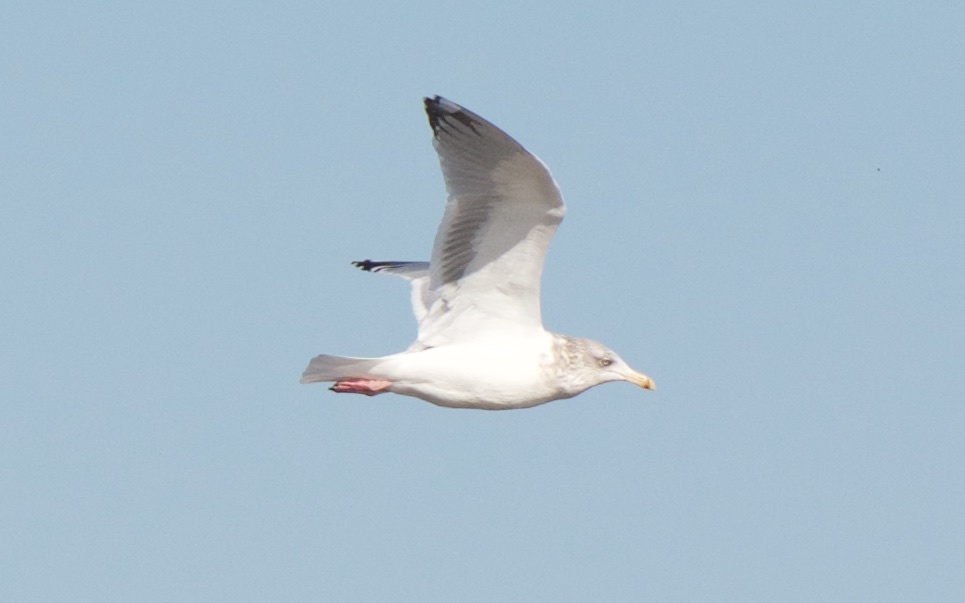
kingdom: Animalia
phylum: Chordata
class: Aves
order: Charadriiformes
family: Laridae
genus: Larus
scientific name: Larus argentatus
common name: Herring gull
